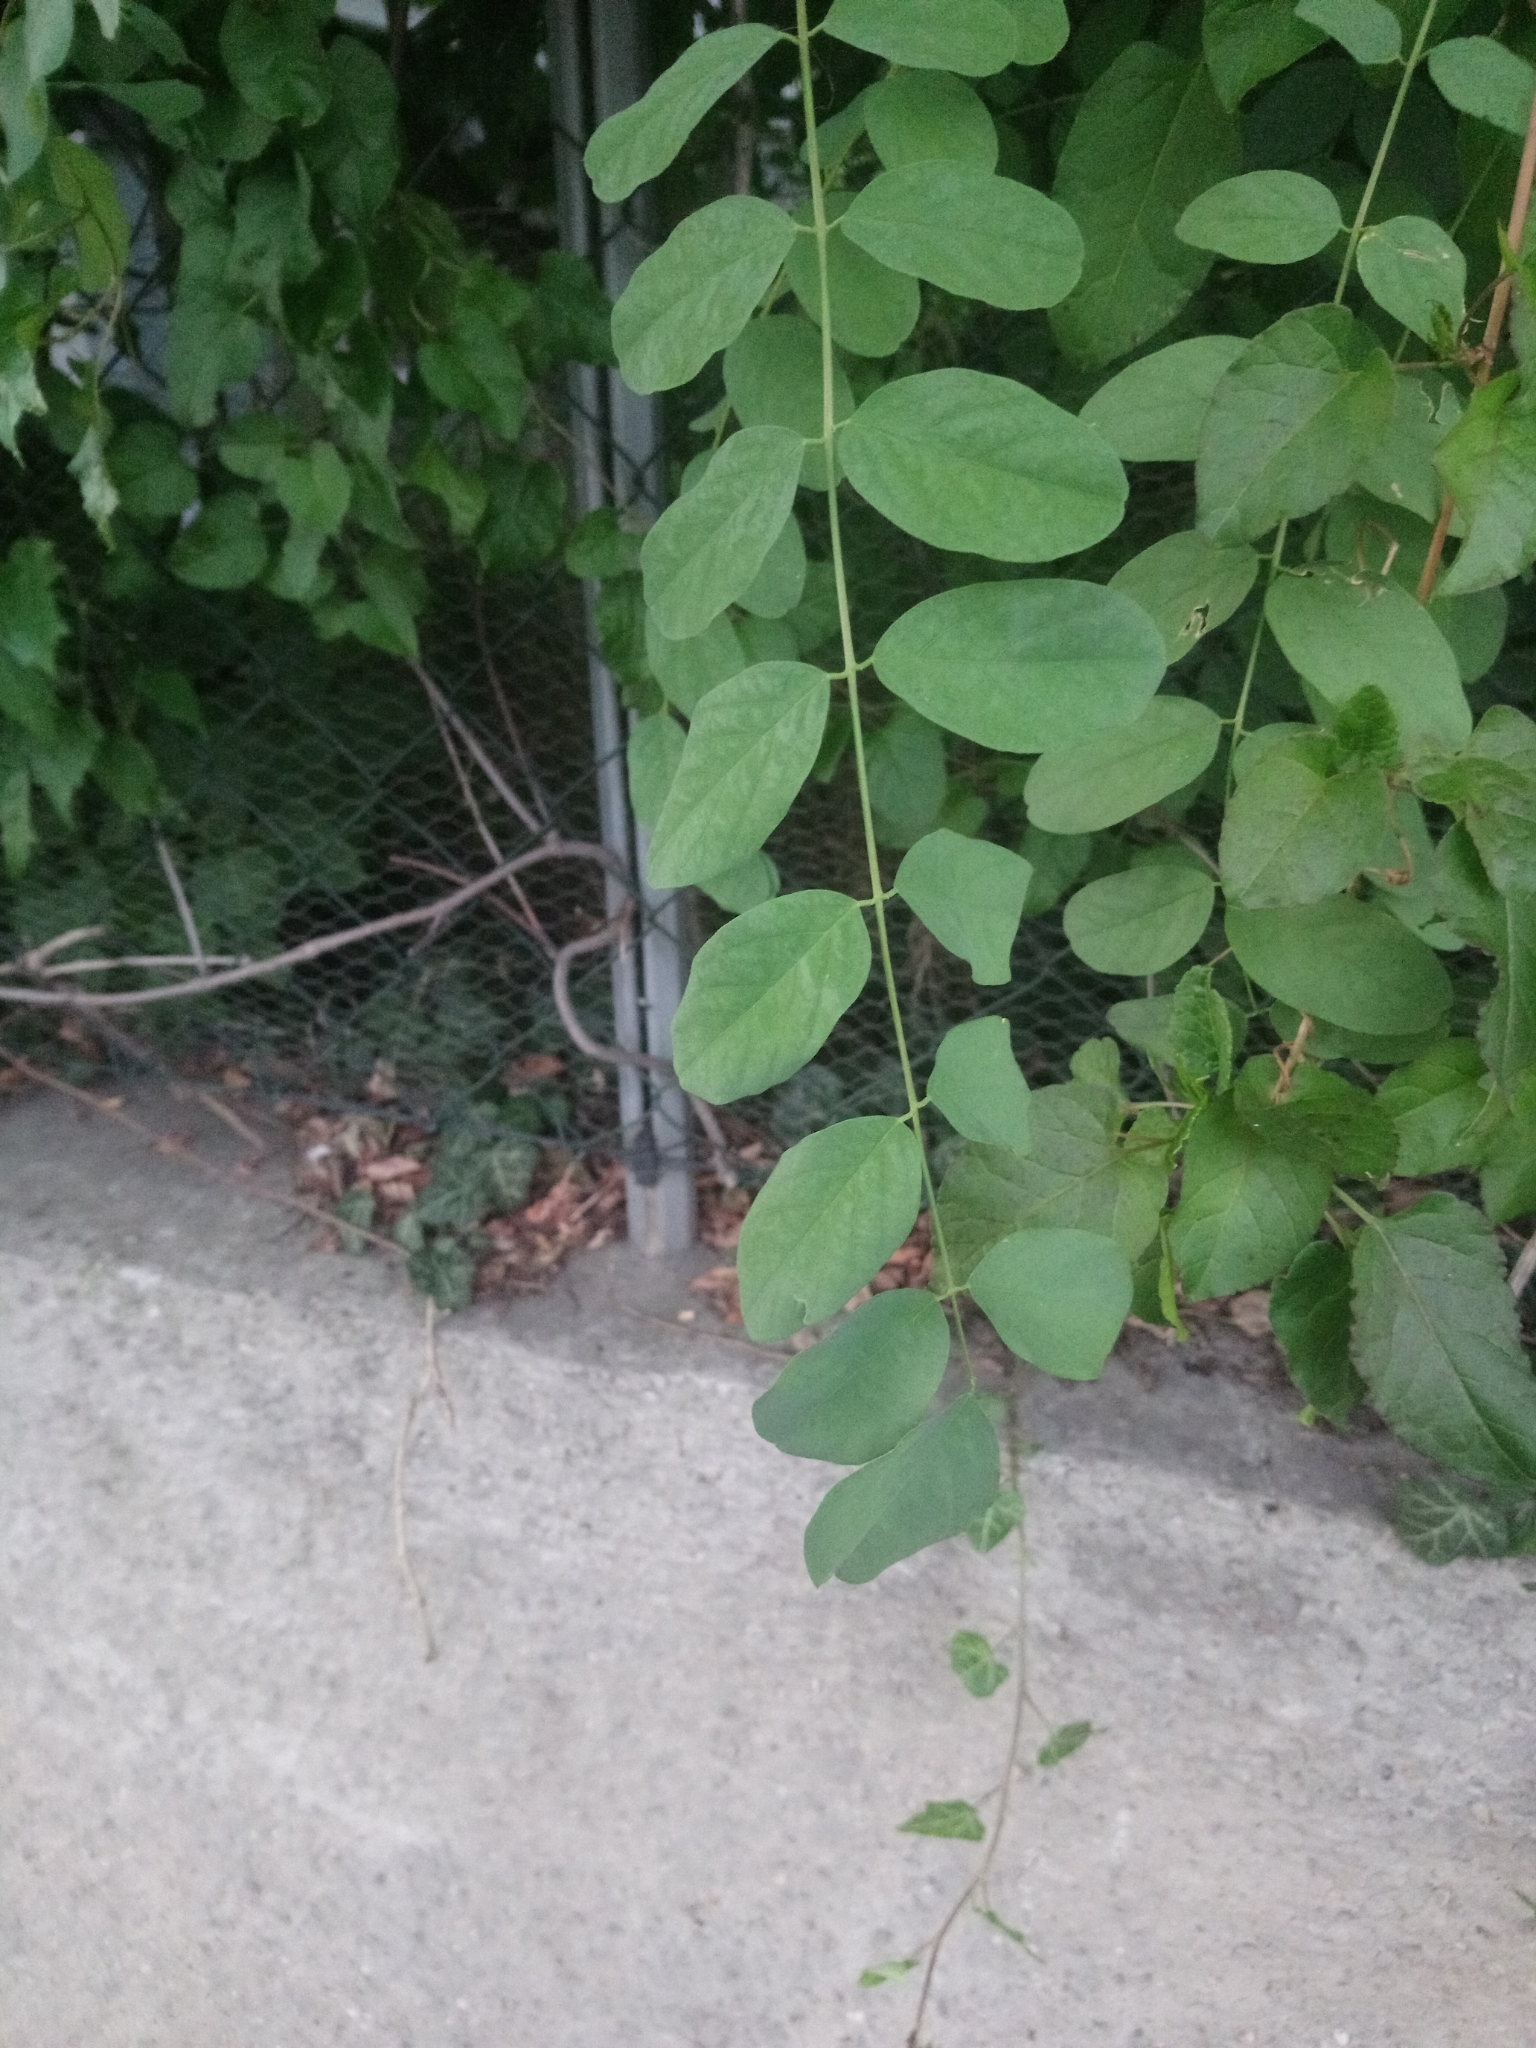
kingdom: Plantae
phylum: Tracheophyta
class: Magnoliopsida
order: Fabales
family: Fabaceae
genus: Robinia
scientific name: Robinia pseudoacacia
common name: Black locust
